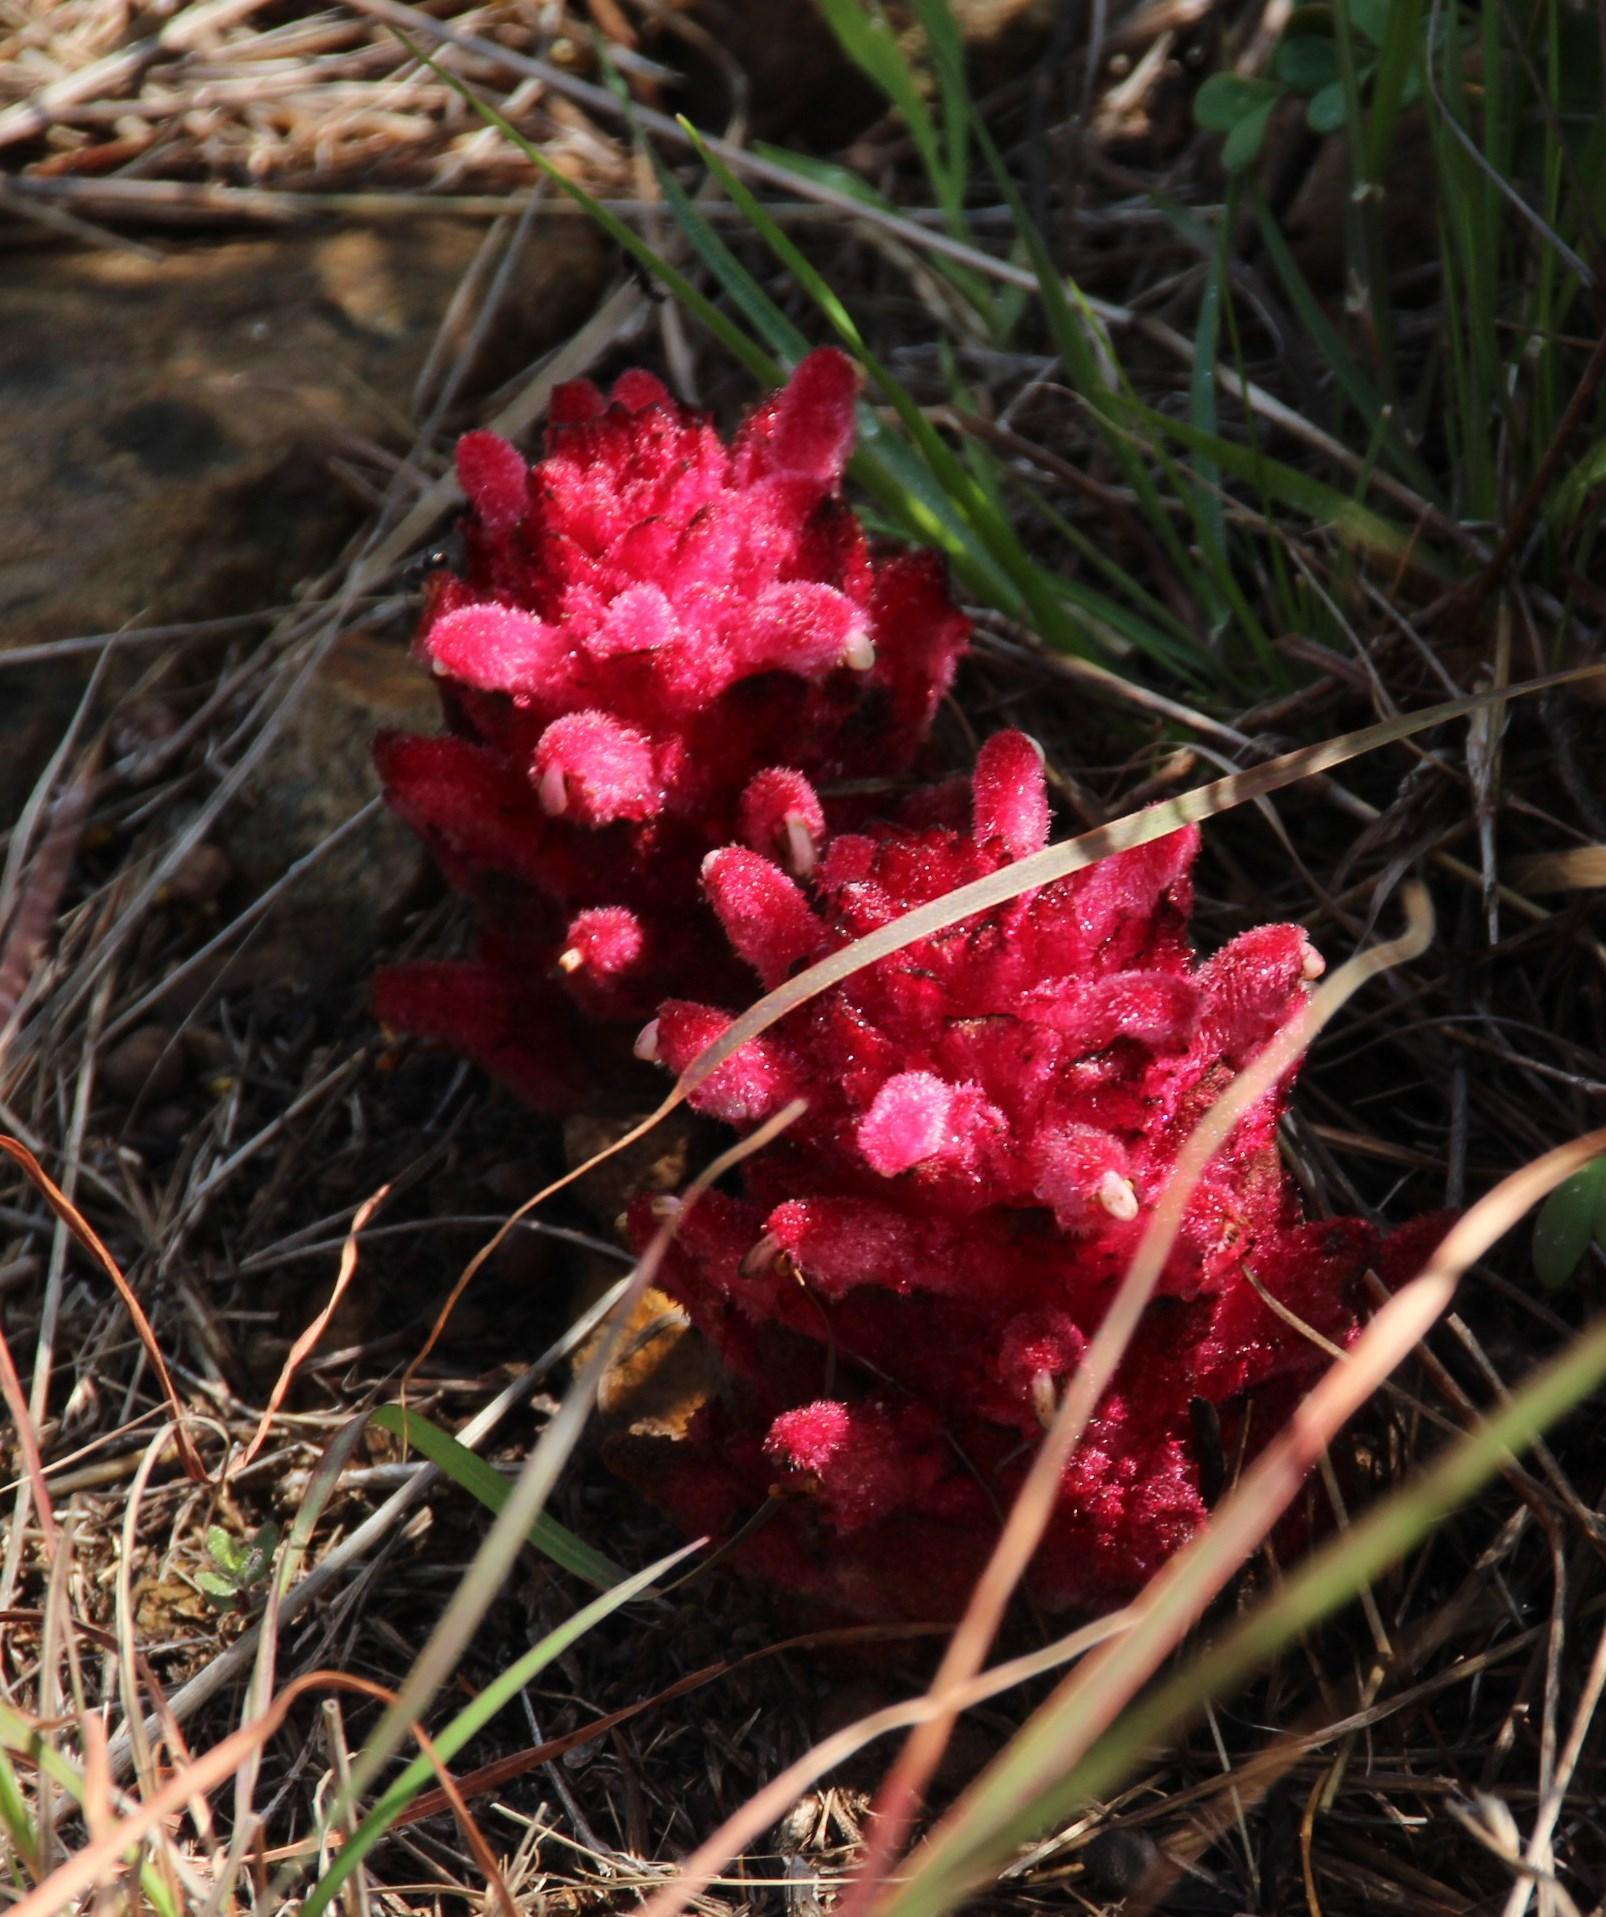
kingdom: Plantae
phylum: Tracheophyta
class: Magnoliopsida
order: Lamiales
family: Orobanchaceae
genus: Hyobanche
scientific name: Hyobanche sanguinea
